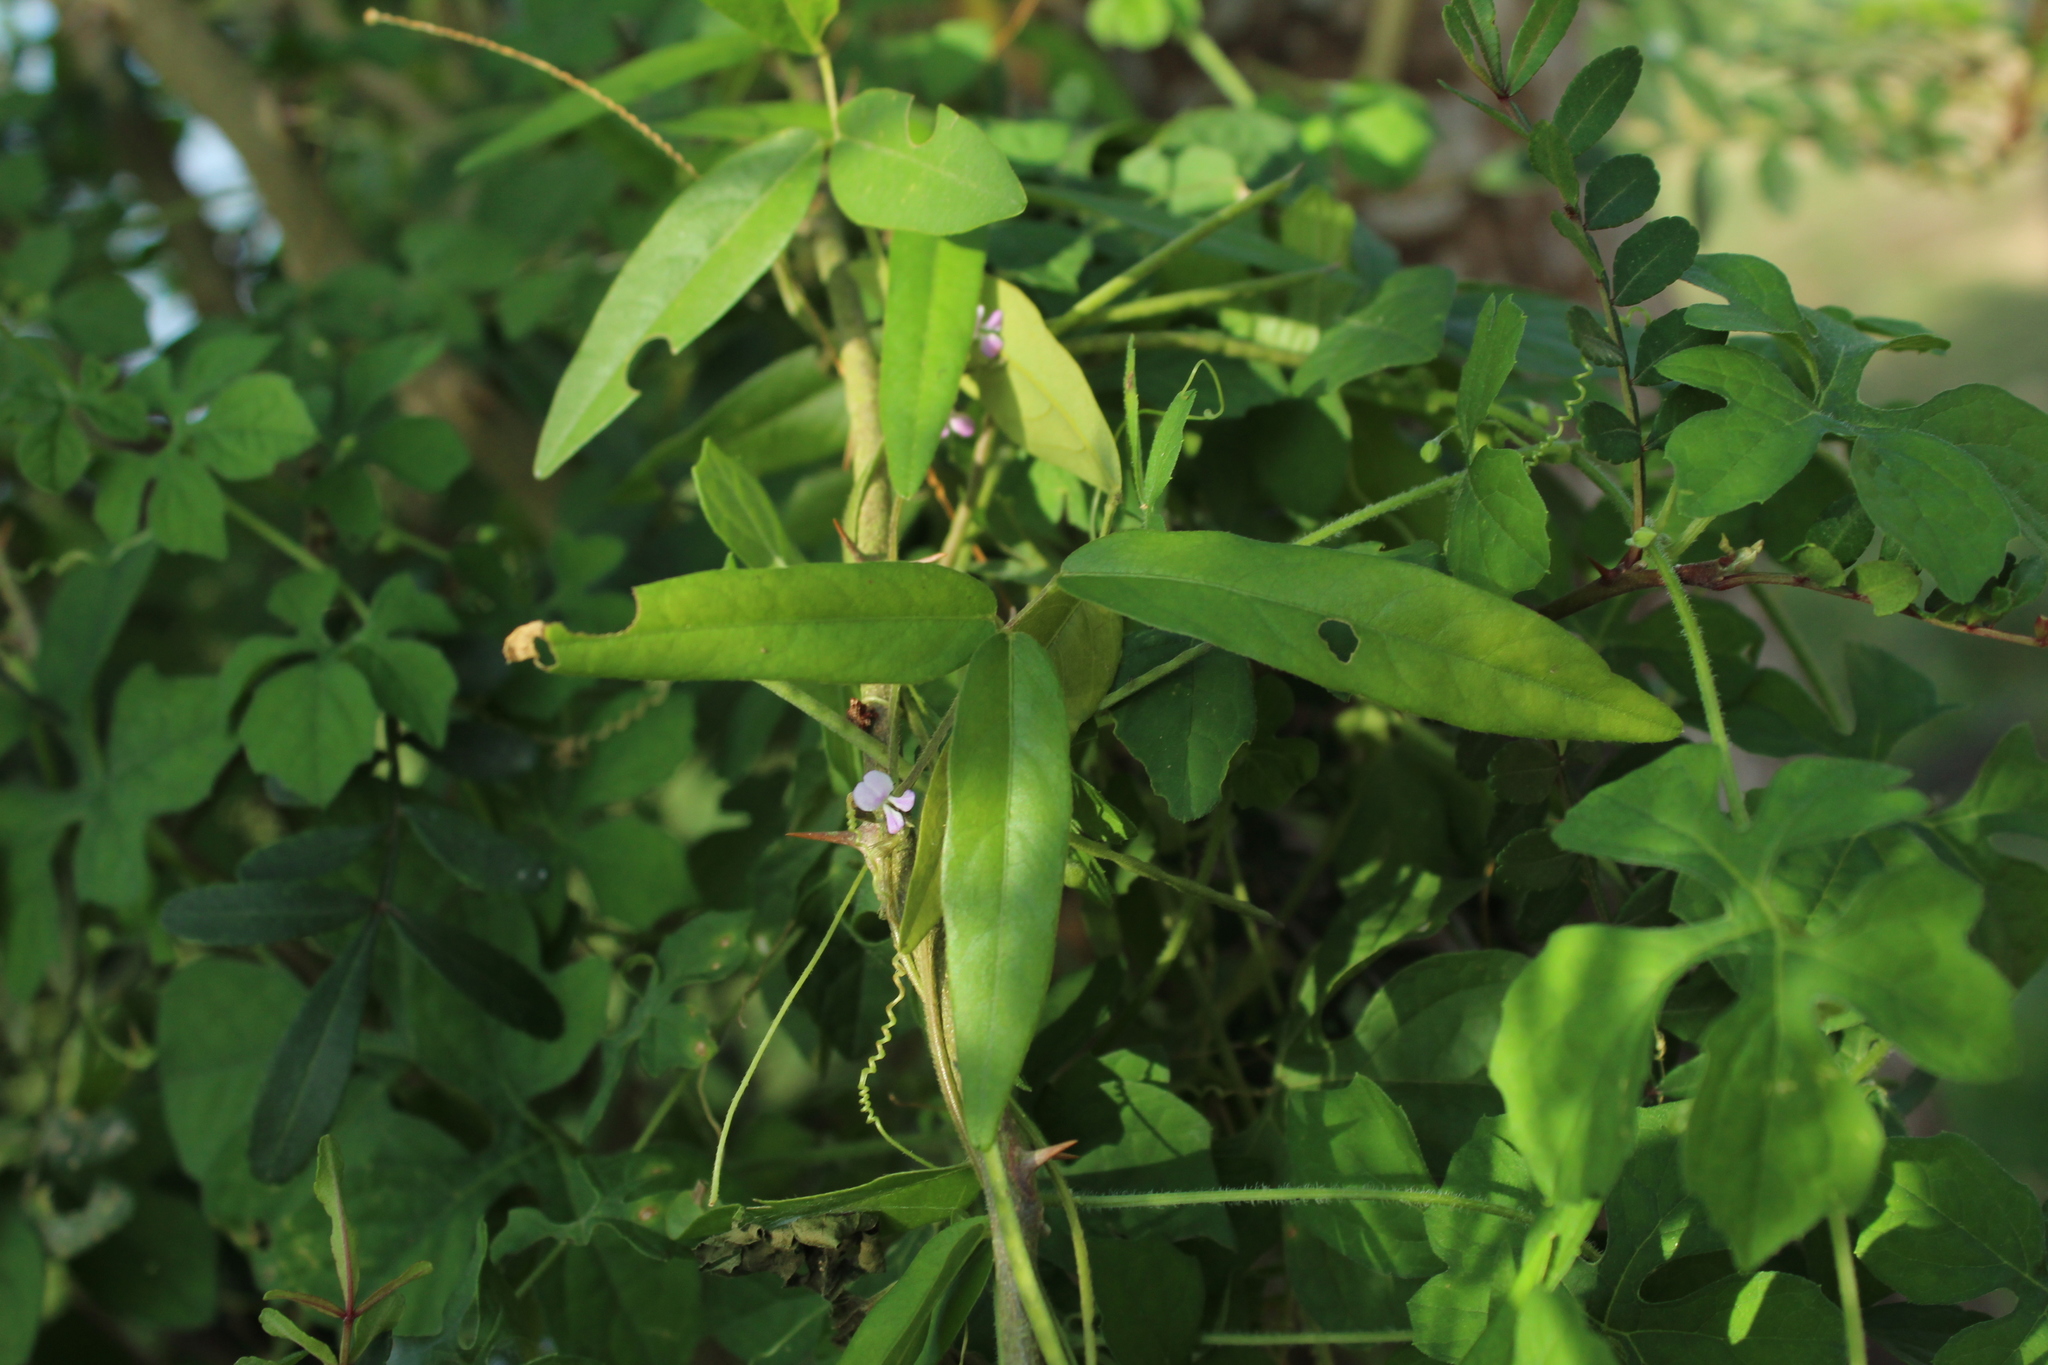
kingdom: Plantae
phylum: Tracheophyta
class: Magnoliopsida
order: Fabales
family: Fabaceae
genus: Teramnus
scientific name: Teramnus volubilis
